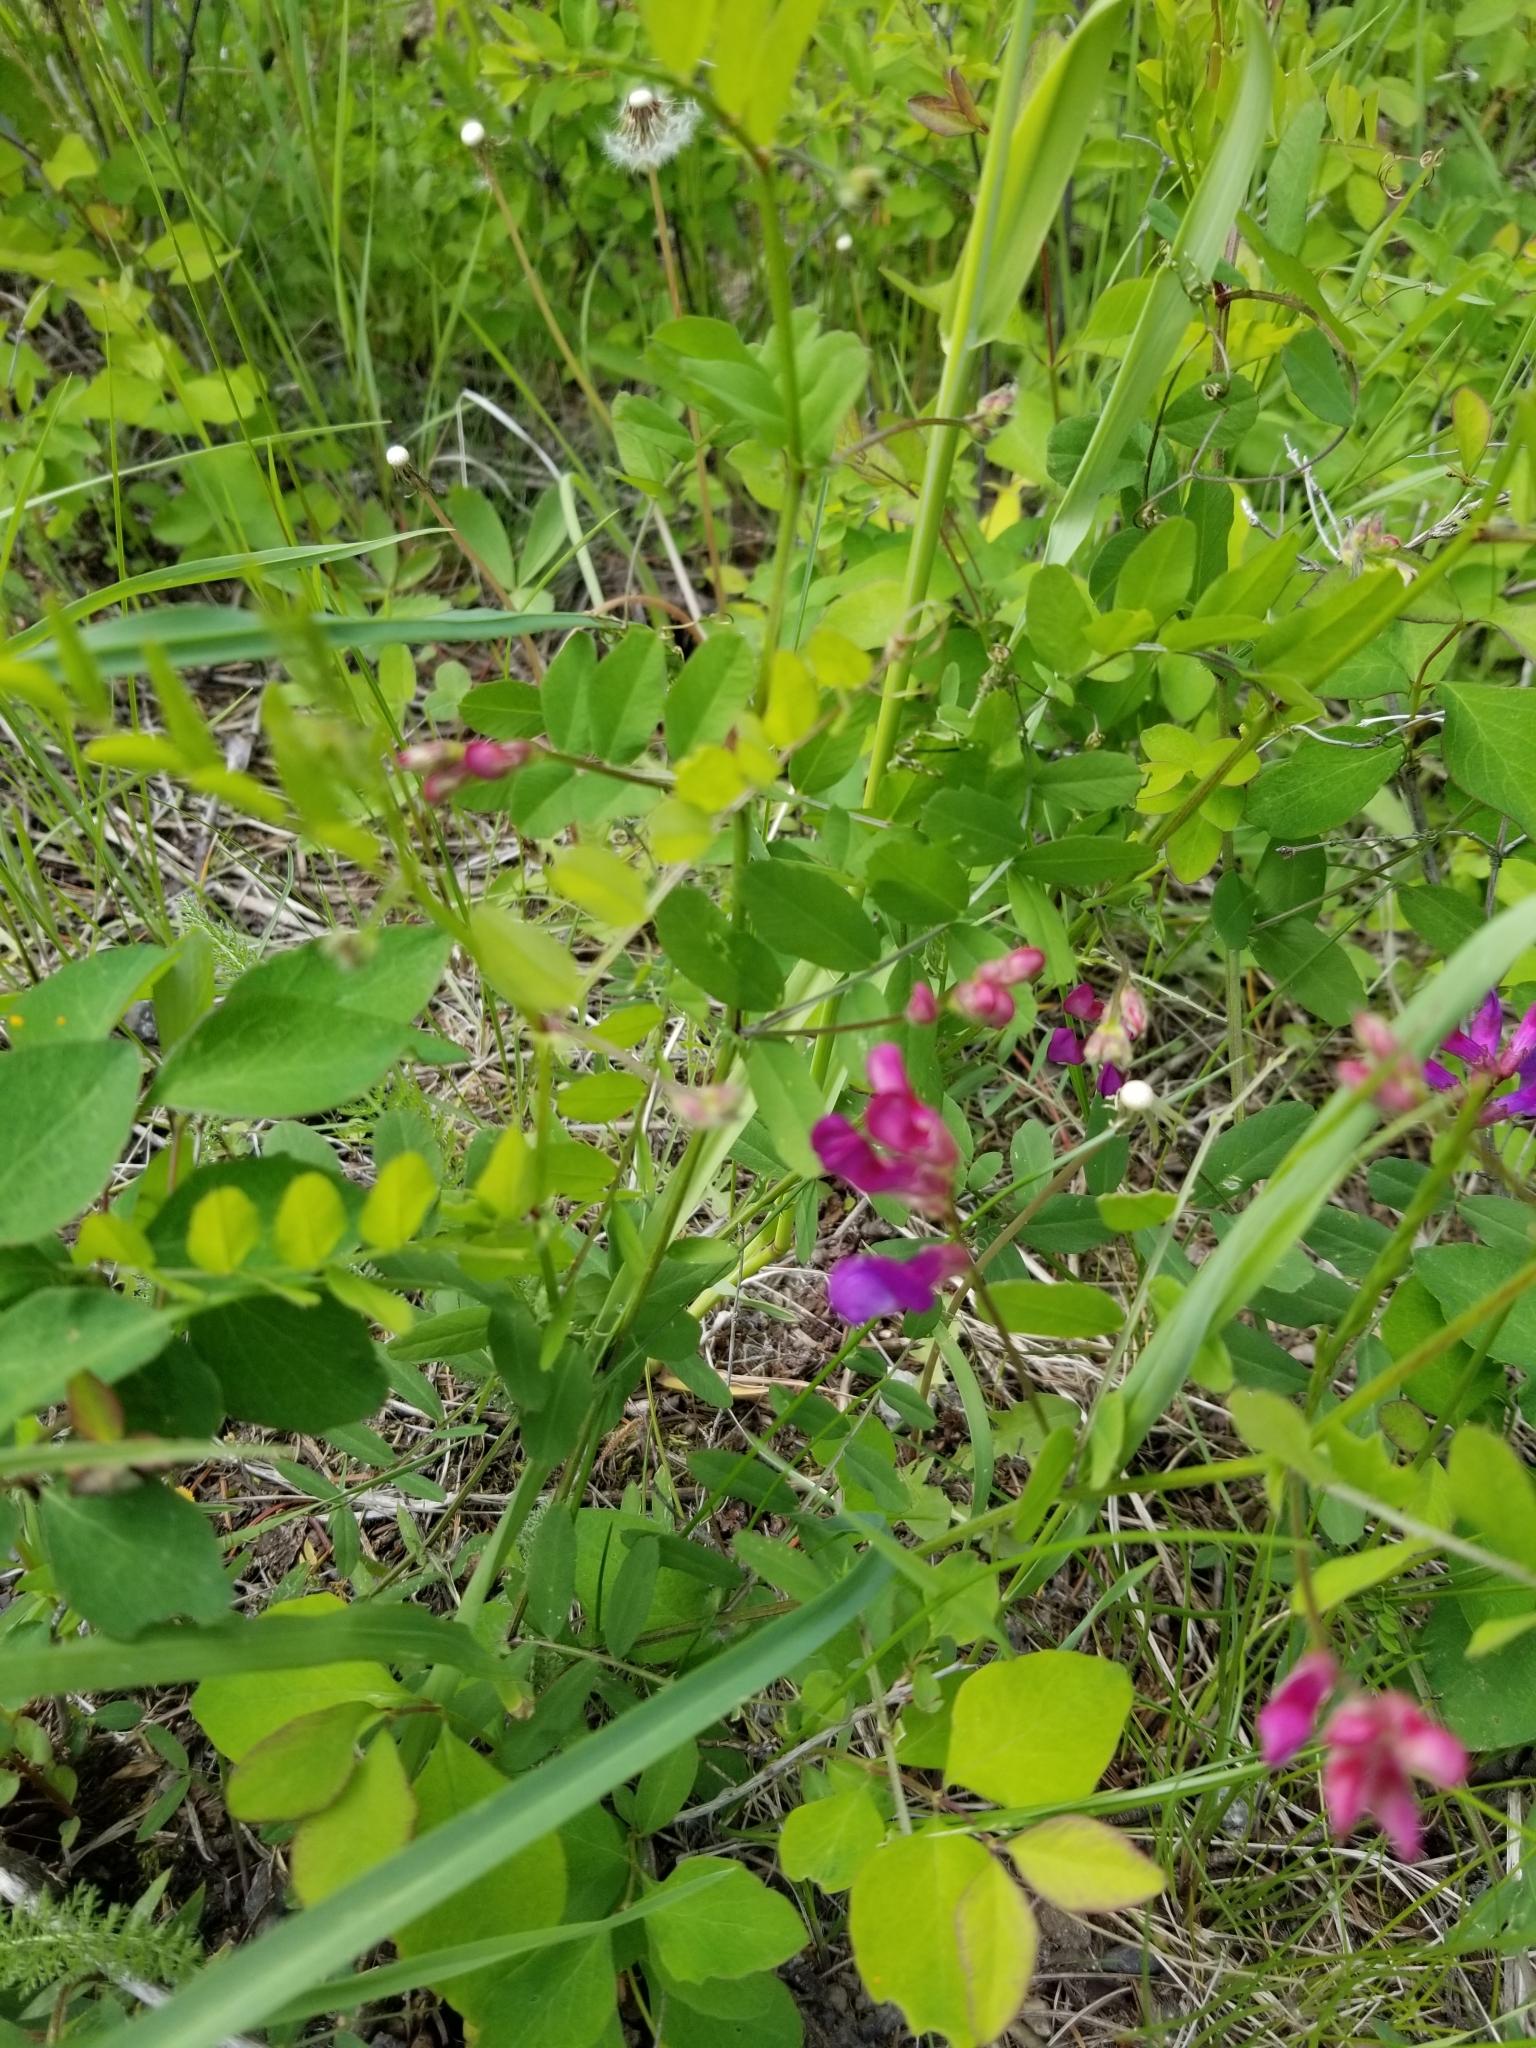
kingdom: Plantae
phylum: Tracheophyta
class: Magnoliopsida
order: Fabales
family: Fabaceae
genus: Vicia
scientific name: Vicia americana
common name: American vetch
